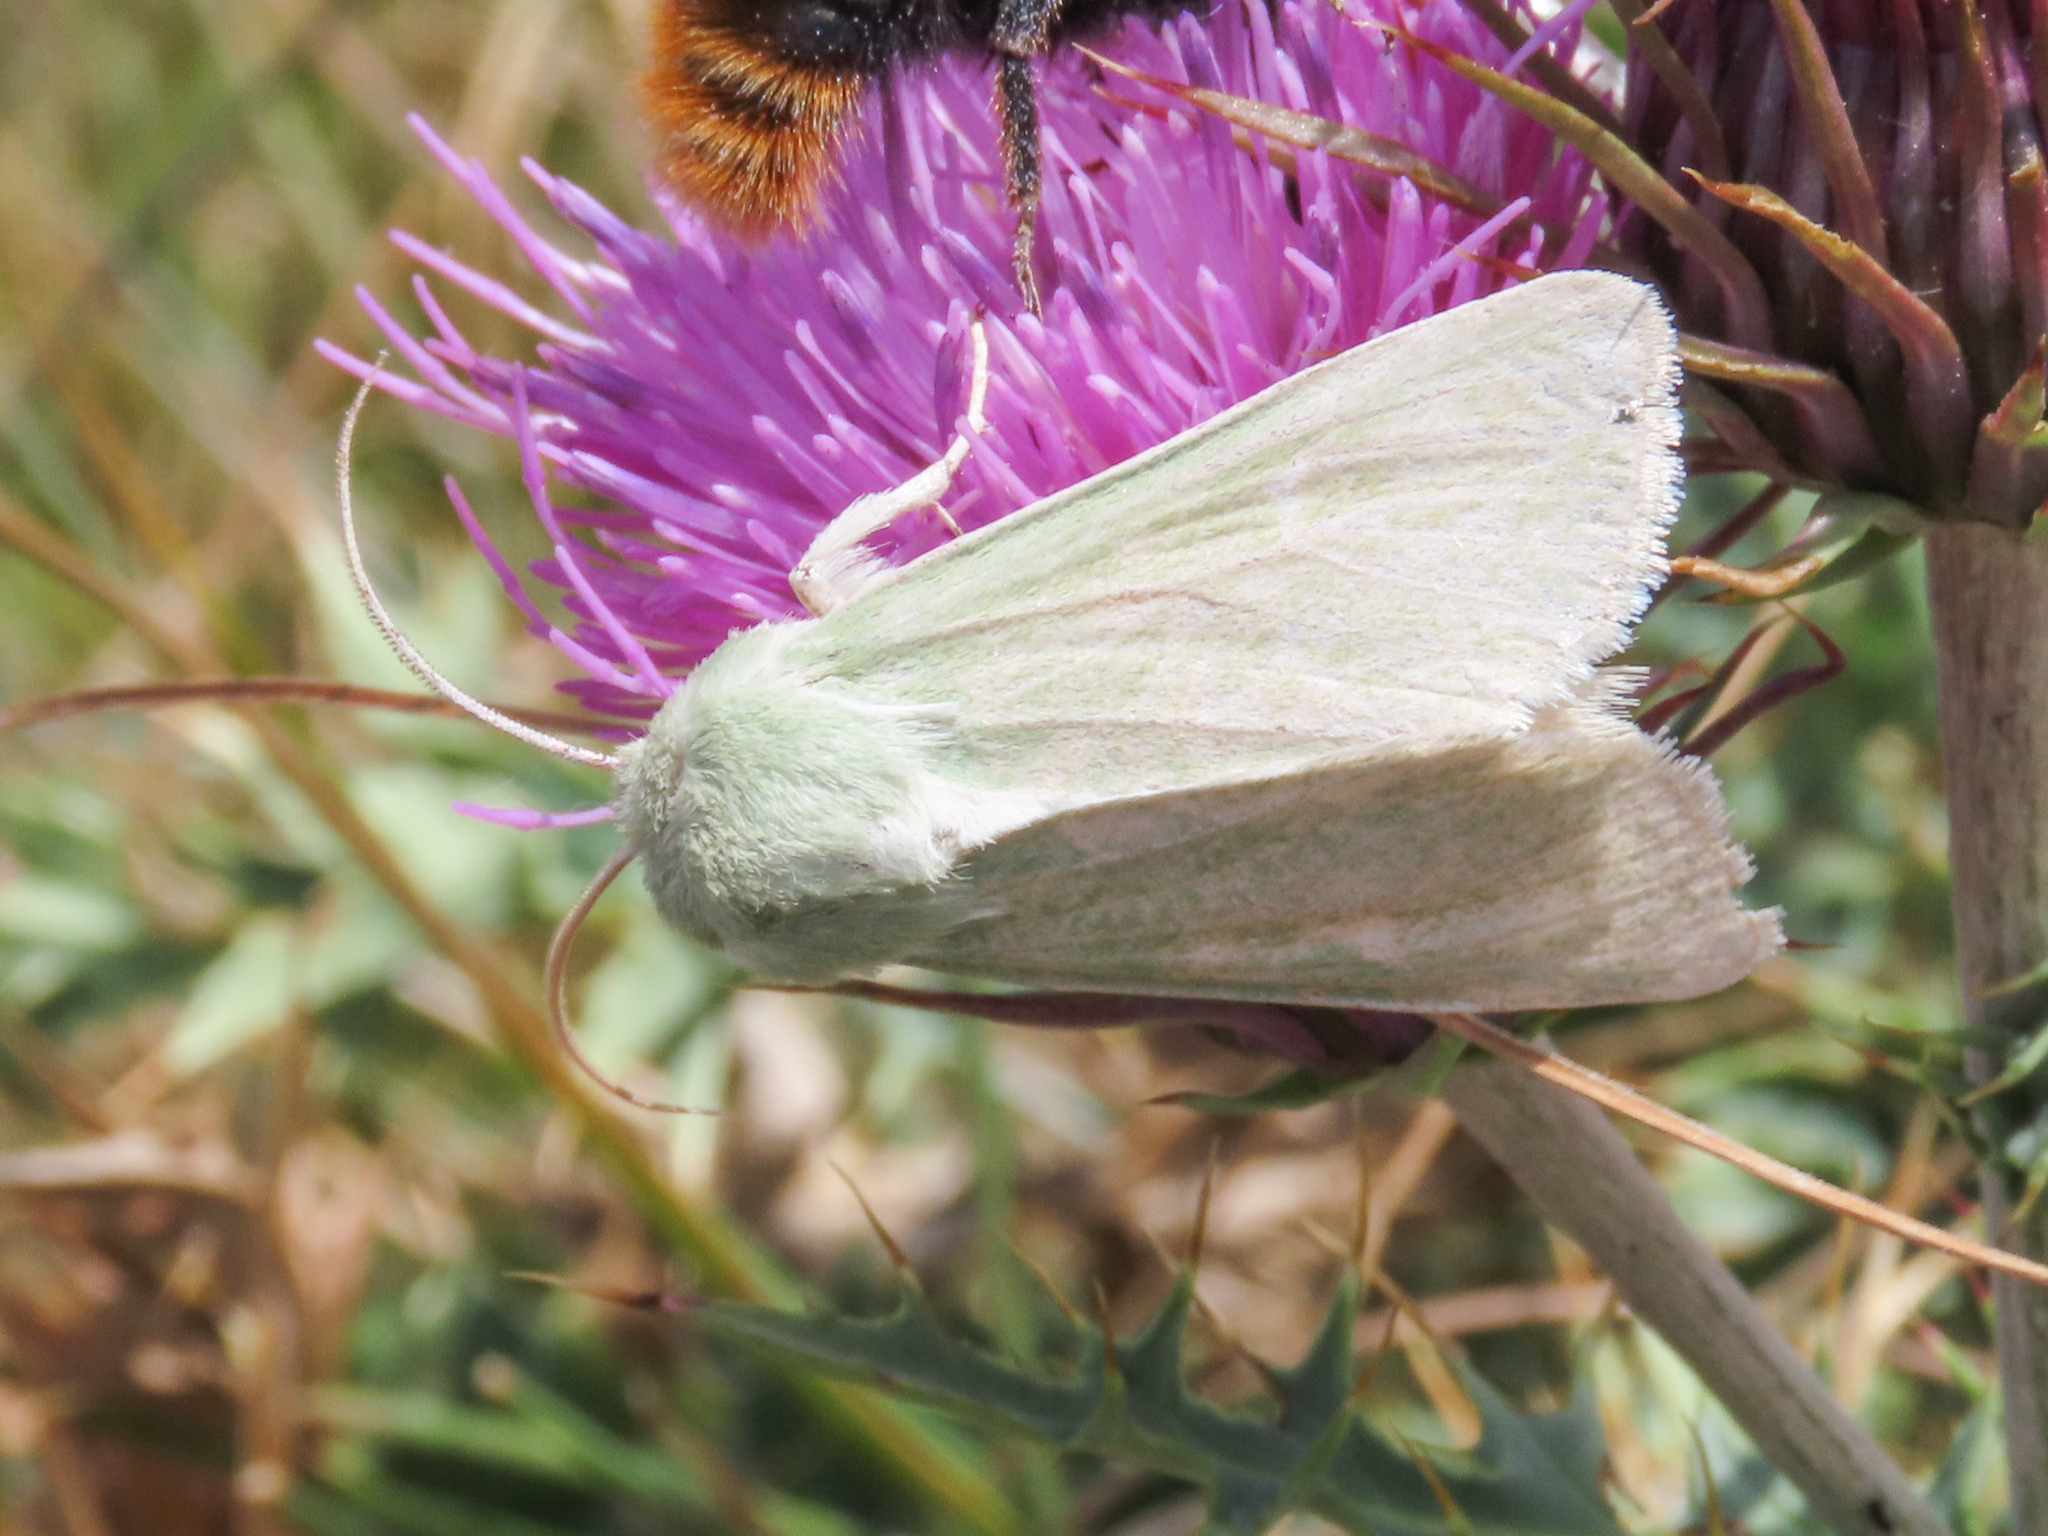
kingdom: Animalia
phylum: Arthropoda
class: Insecta
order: Lepidoptera
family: Noctuidae
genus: Calamia
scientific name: Calamia tridens
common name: Burren green
